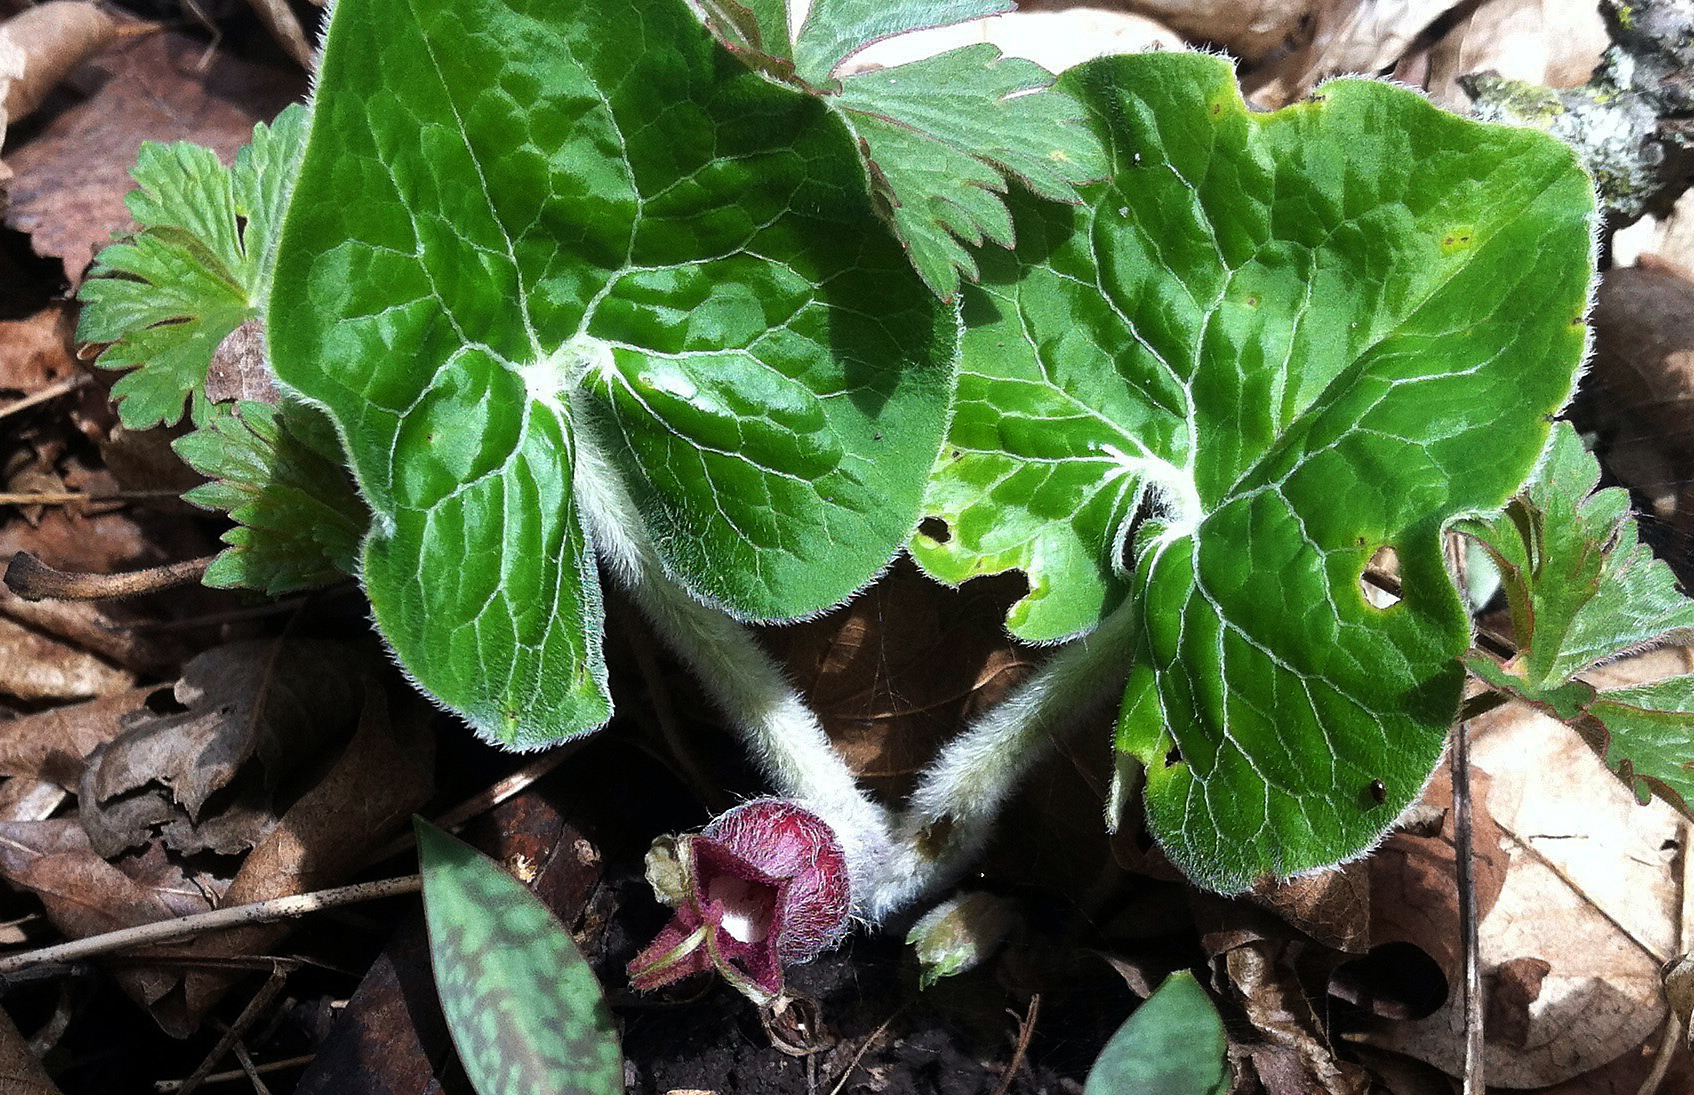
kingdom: Plantae
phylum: Tracheophyta
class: Magnoliopsida
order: Piperales
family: Aristolochiaceae
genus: Asarum
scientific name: Asarum canadense
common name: Wild ginger
